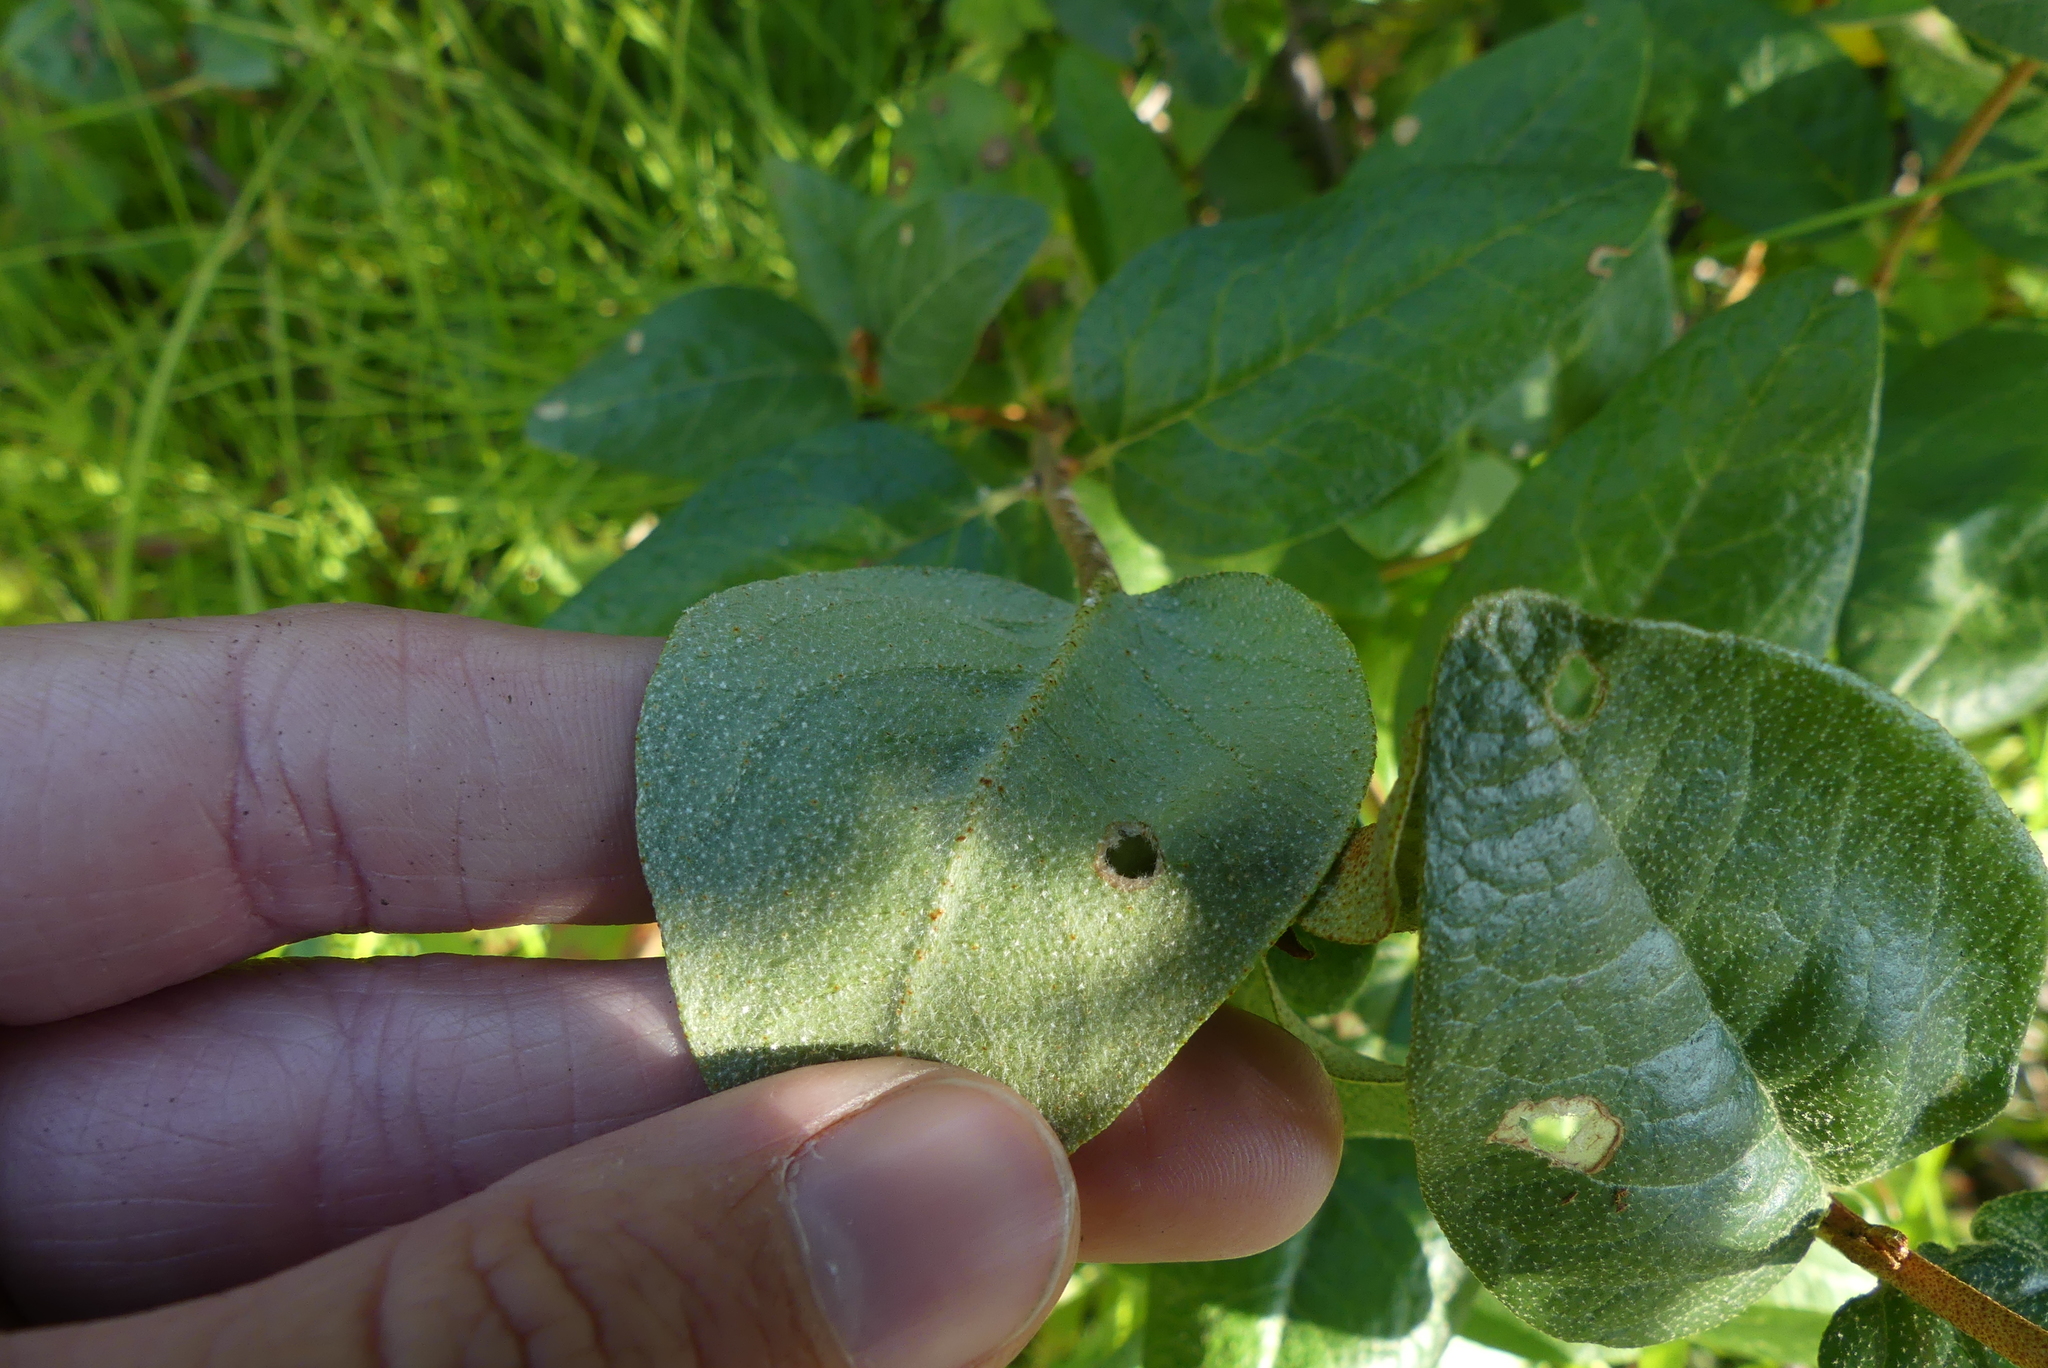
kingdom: Plantae
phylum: Tracheophyta
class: Magnoliopsida
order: Rosales
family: Elaeagnaceae
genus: Shepherdia
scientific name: Shepherdia canadensis
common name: Soapberry
